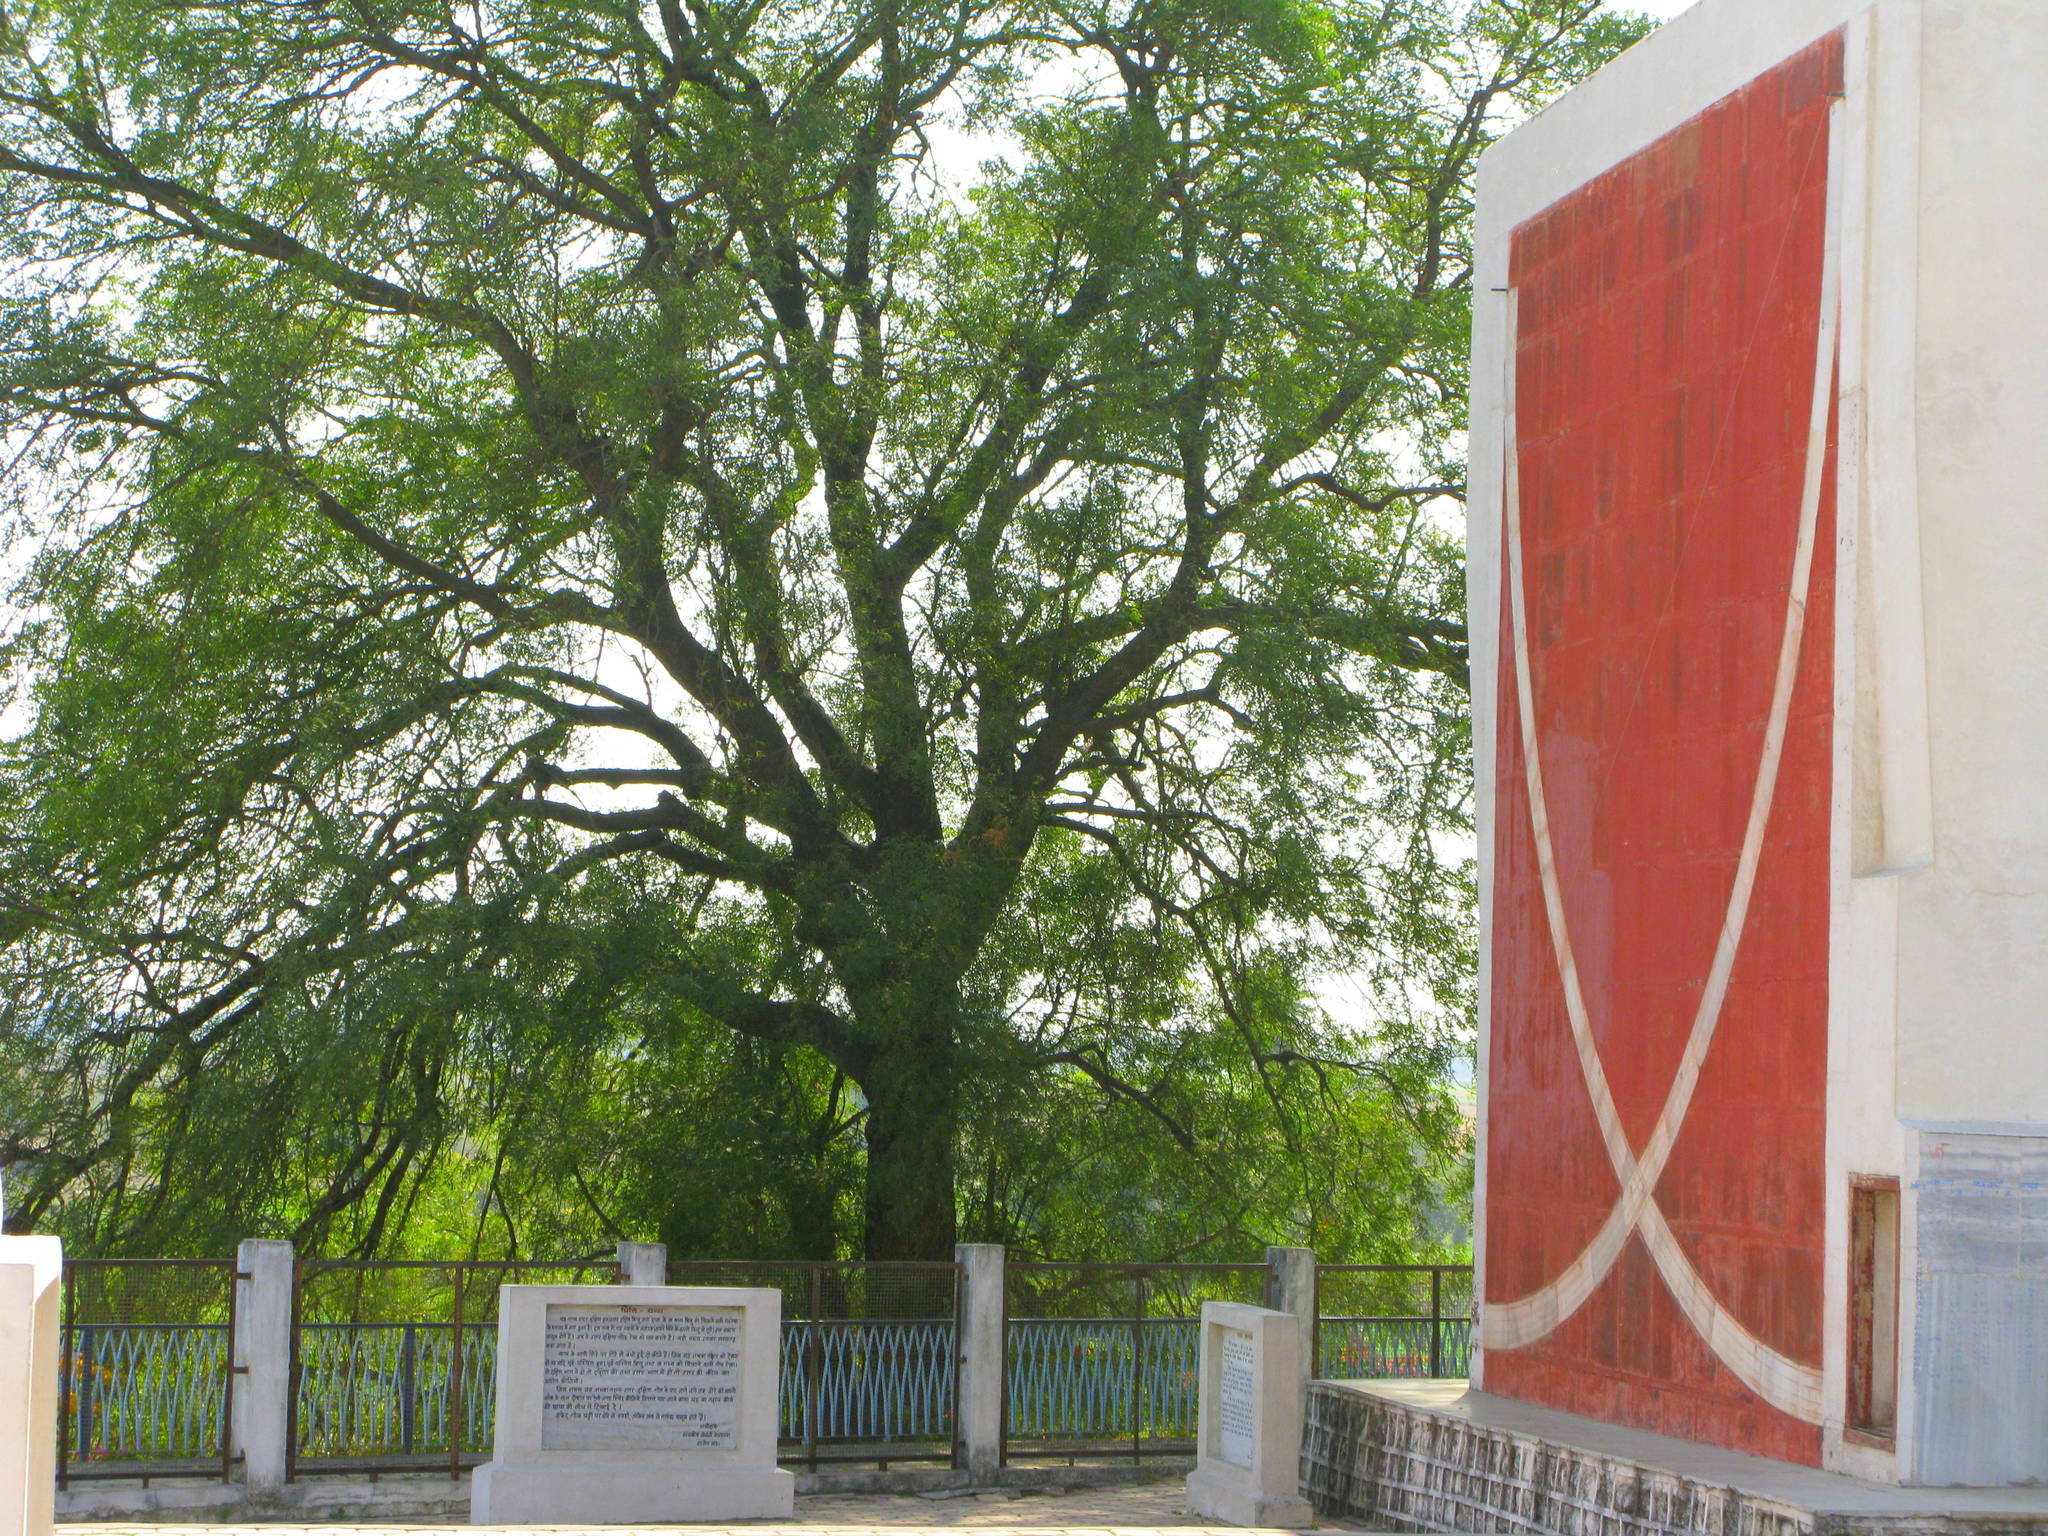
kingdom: Plantae
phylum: Tracheophyta
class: Magnoliopsida
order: Sapindales
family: Meliaceae
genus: Azadirachta
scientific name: Azadirachta indica
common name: Neem
